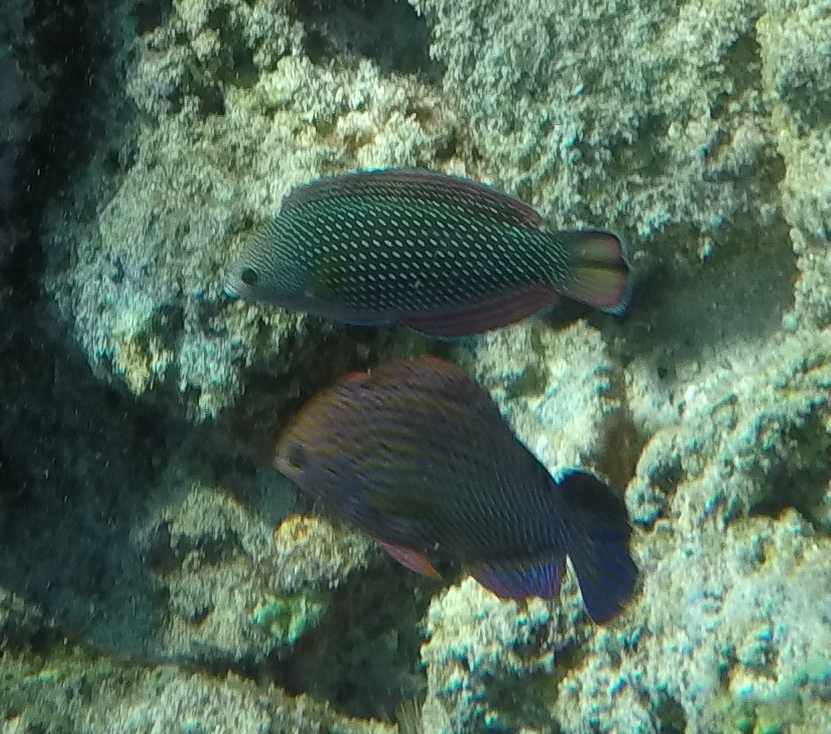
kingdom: Animalia
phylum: Chordata
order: Perciformes
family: Labridae
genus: Macropharyngodon
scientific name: Macropharyngodon geoffroy
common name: Shortnose wrasse
